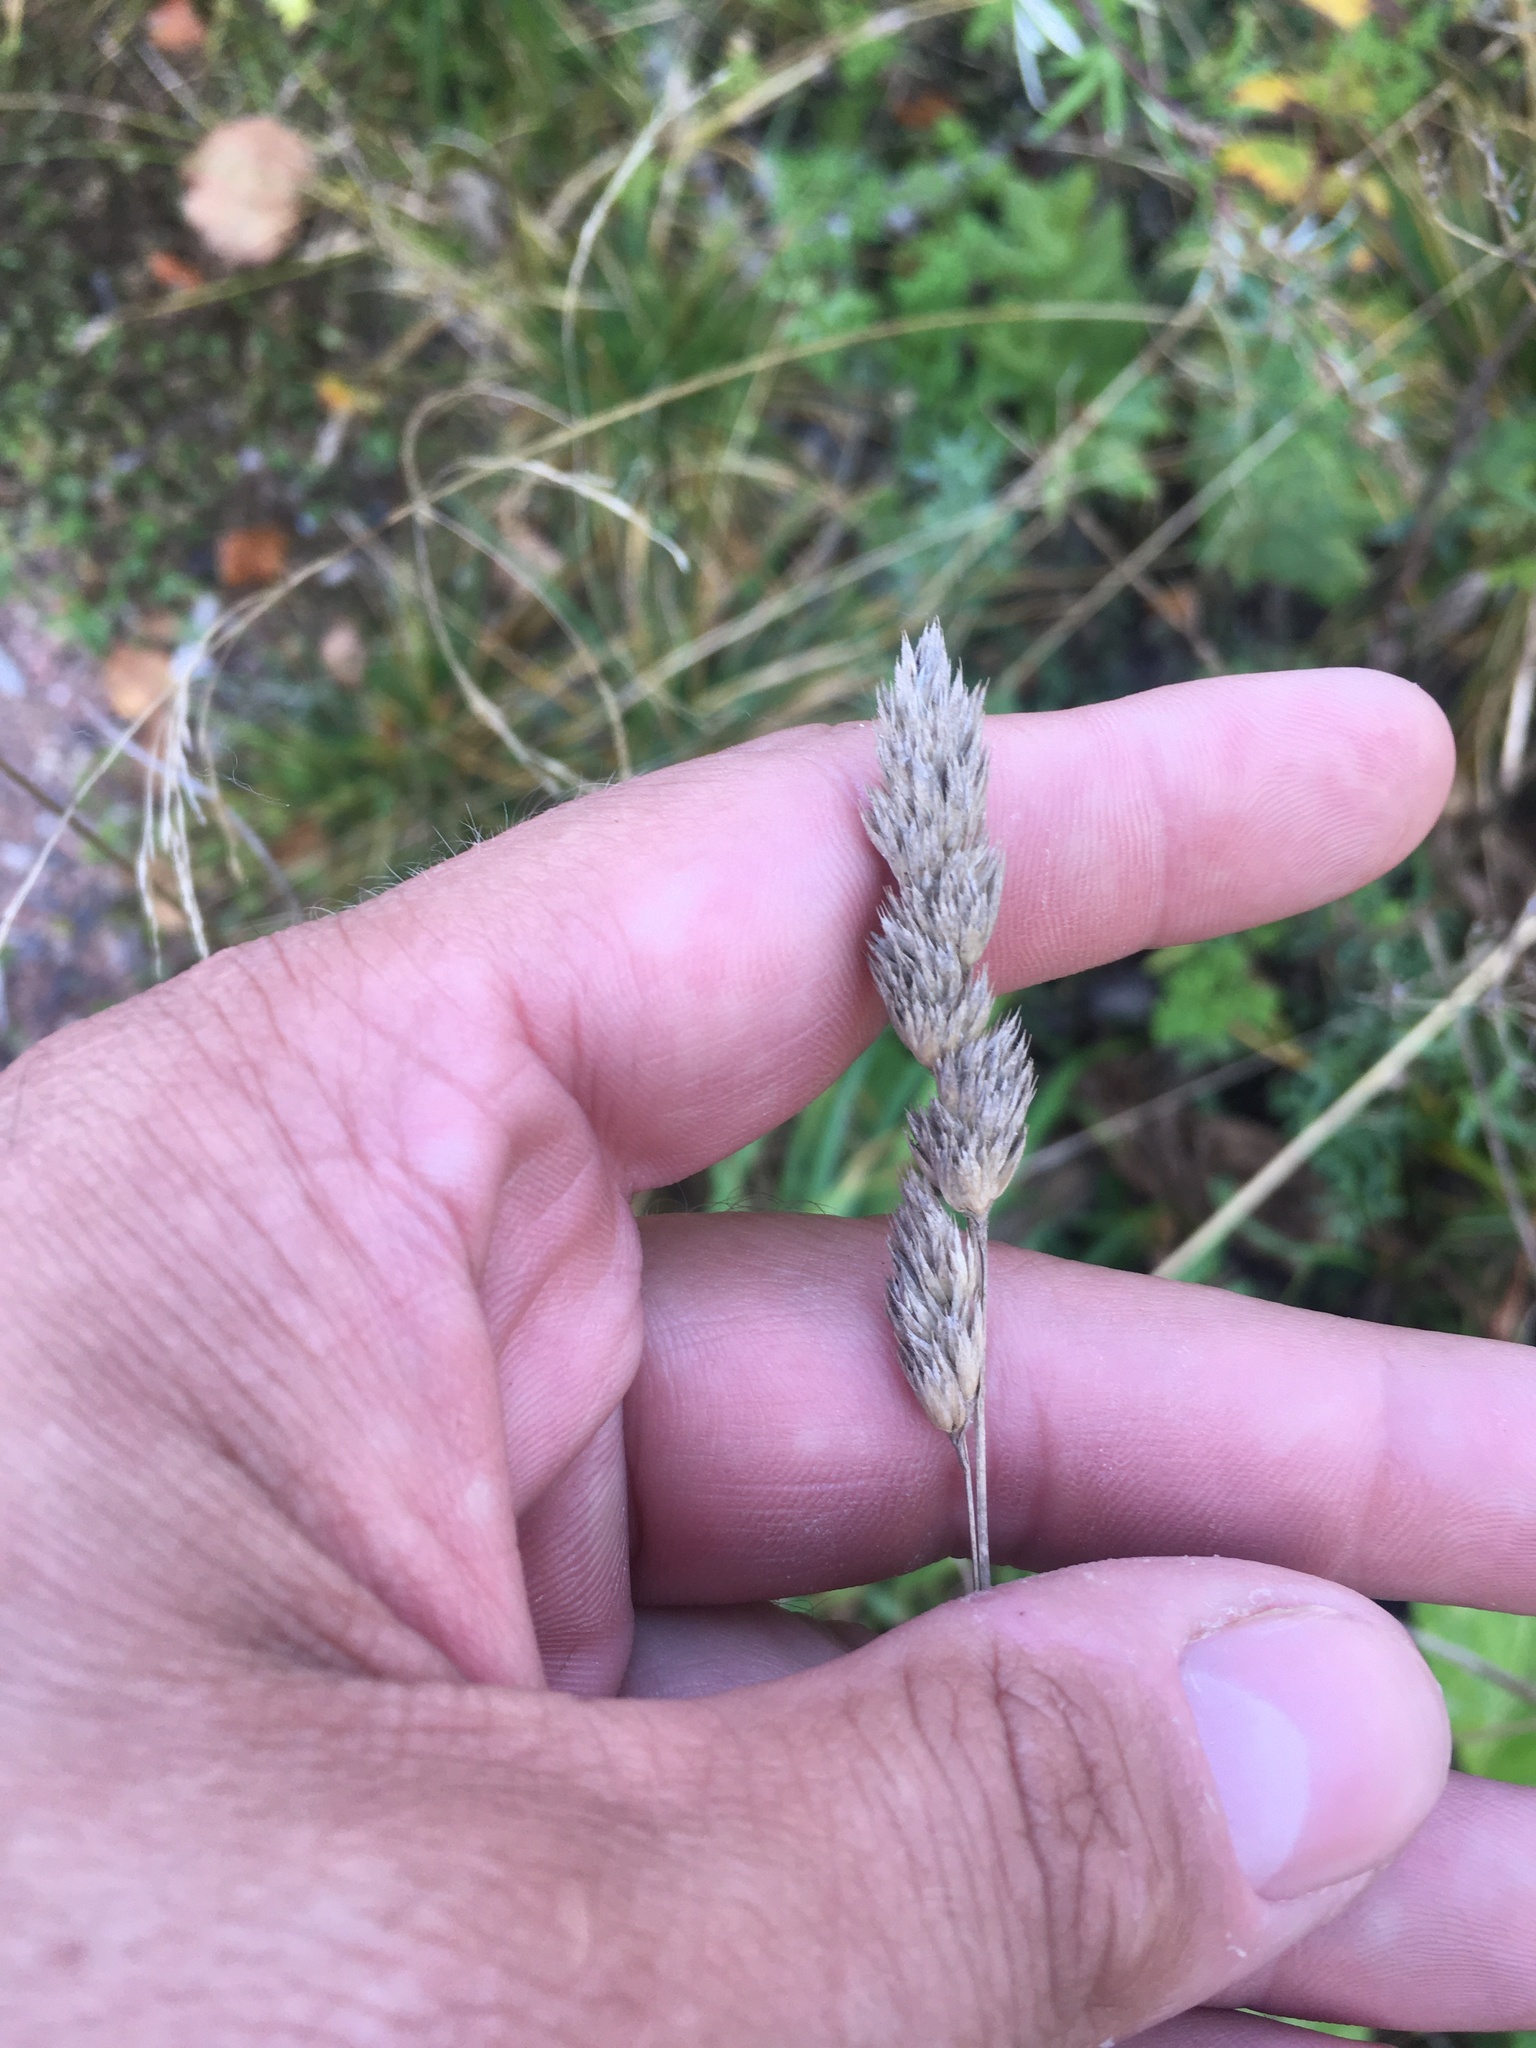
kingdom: Plantae
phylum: Tracheophyta
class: Liliopsida
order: Poales
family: Poaceae
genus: Dactylis
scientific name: Dactylis glomerata
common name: Orchardgrass
